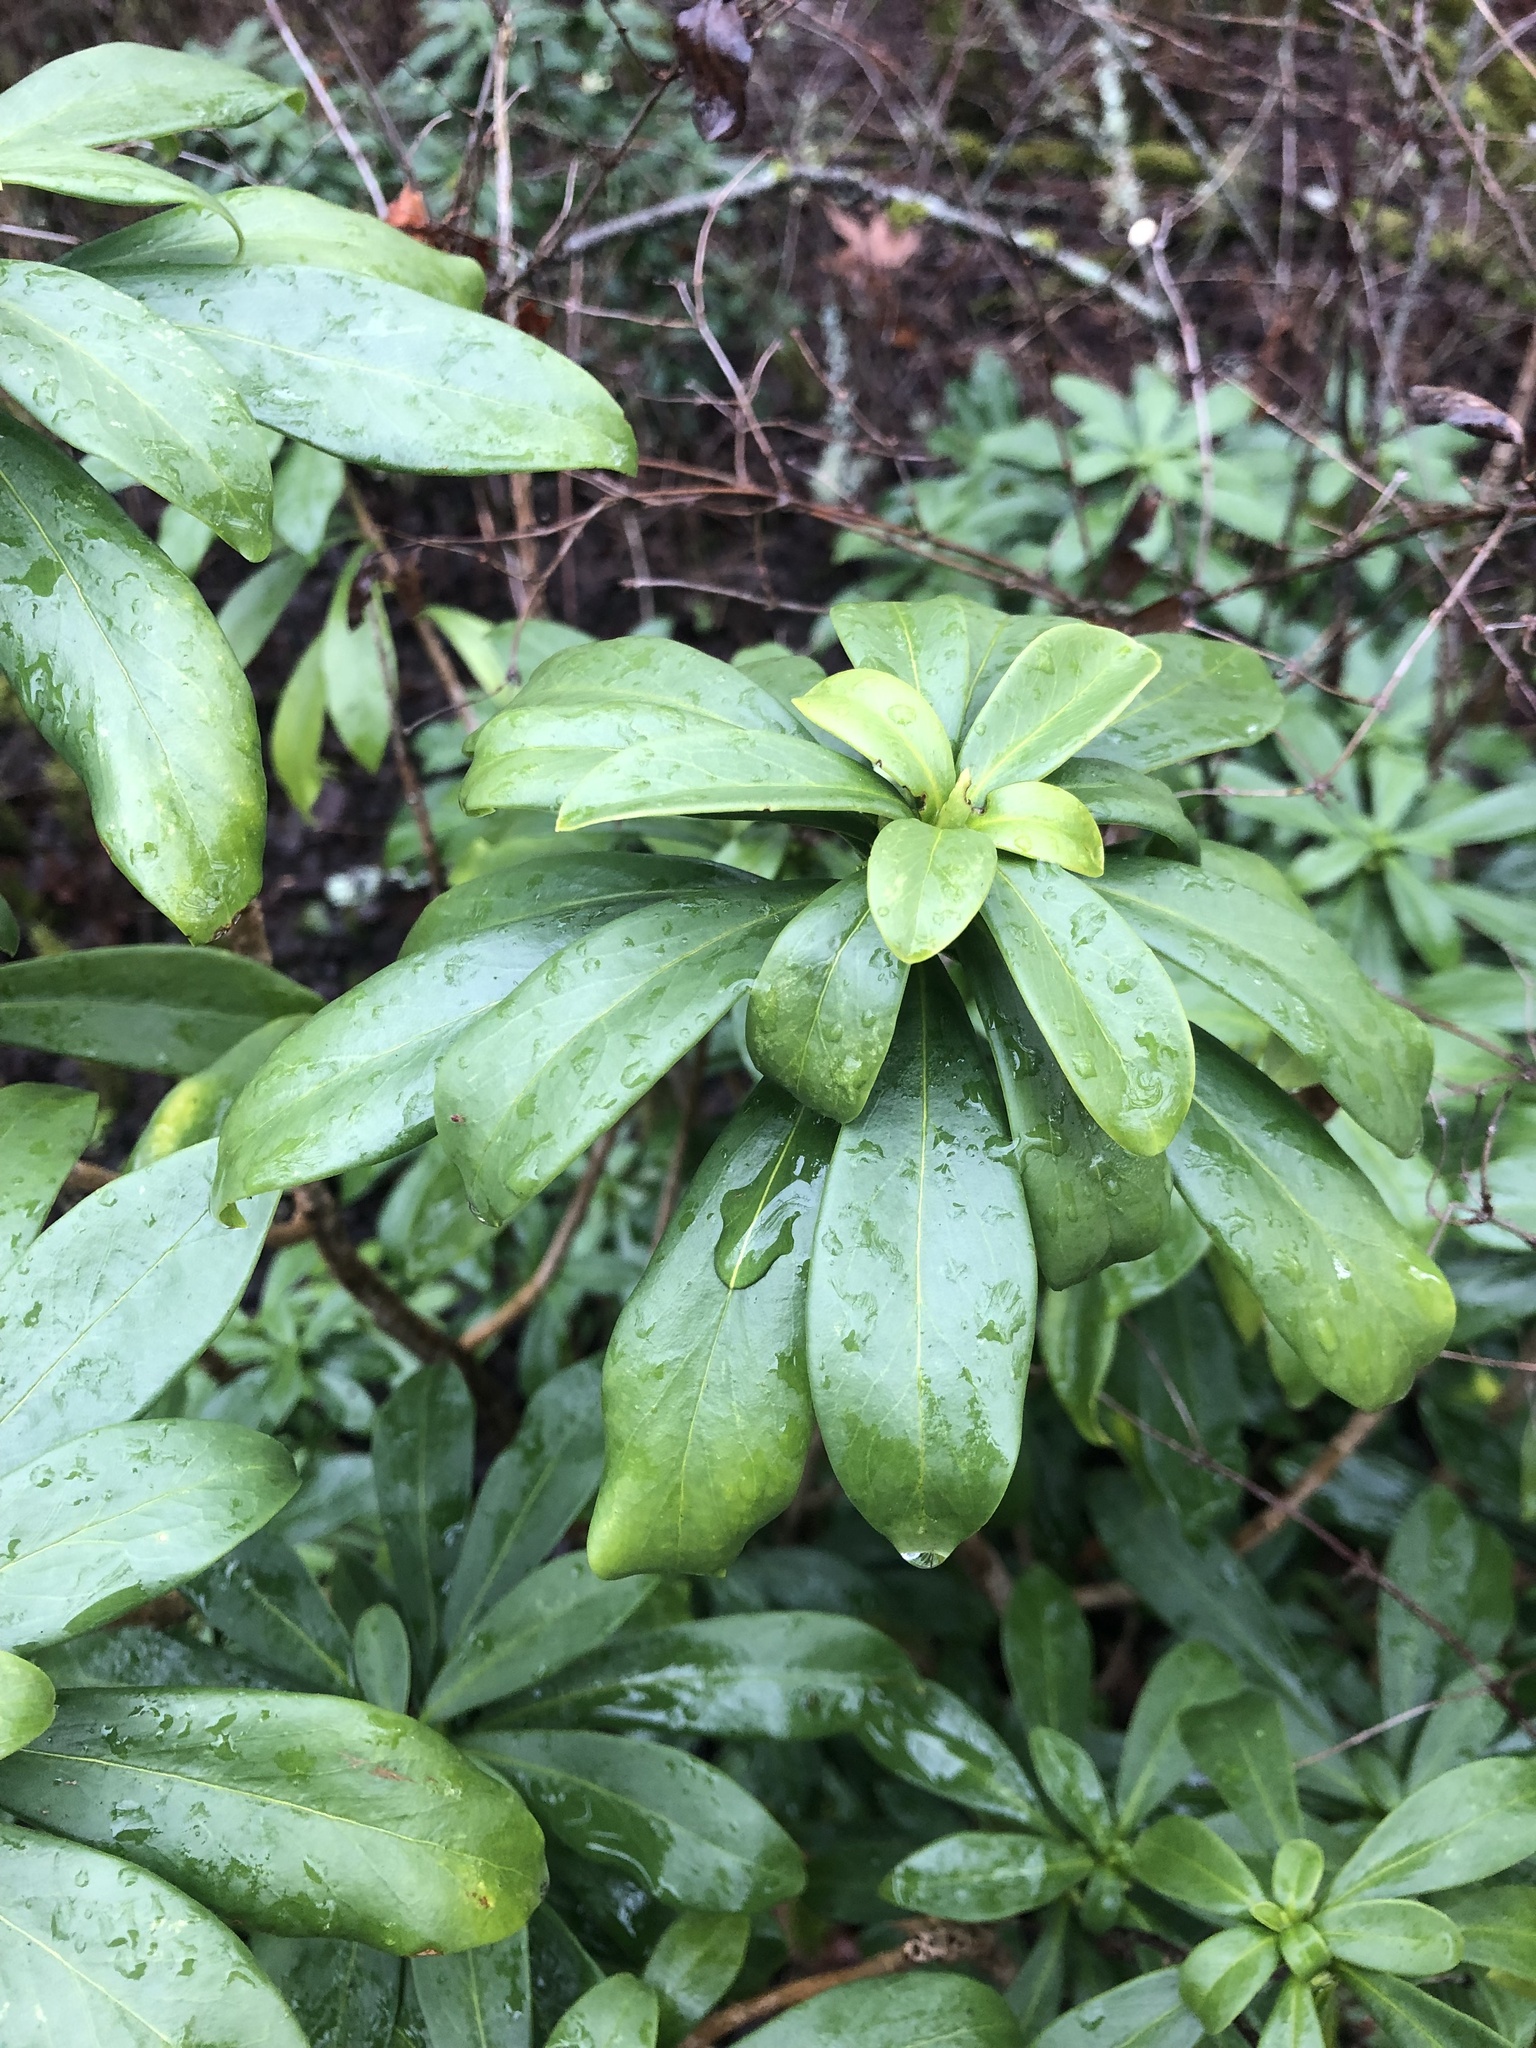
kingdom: Plantae
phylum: Tracheophyta
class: Magnoliopsida
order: Malvales
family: Thymelaeaceae
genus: Daphne
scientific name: Daphne laureola
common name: Spurge-laurel
